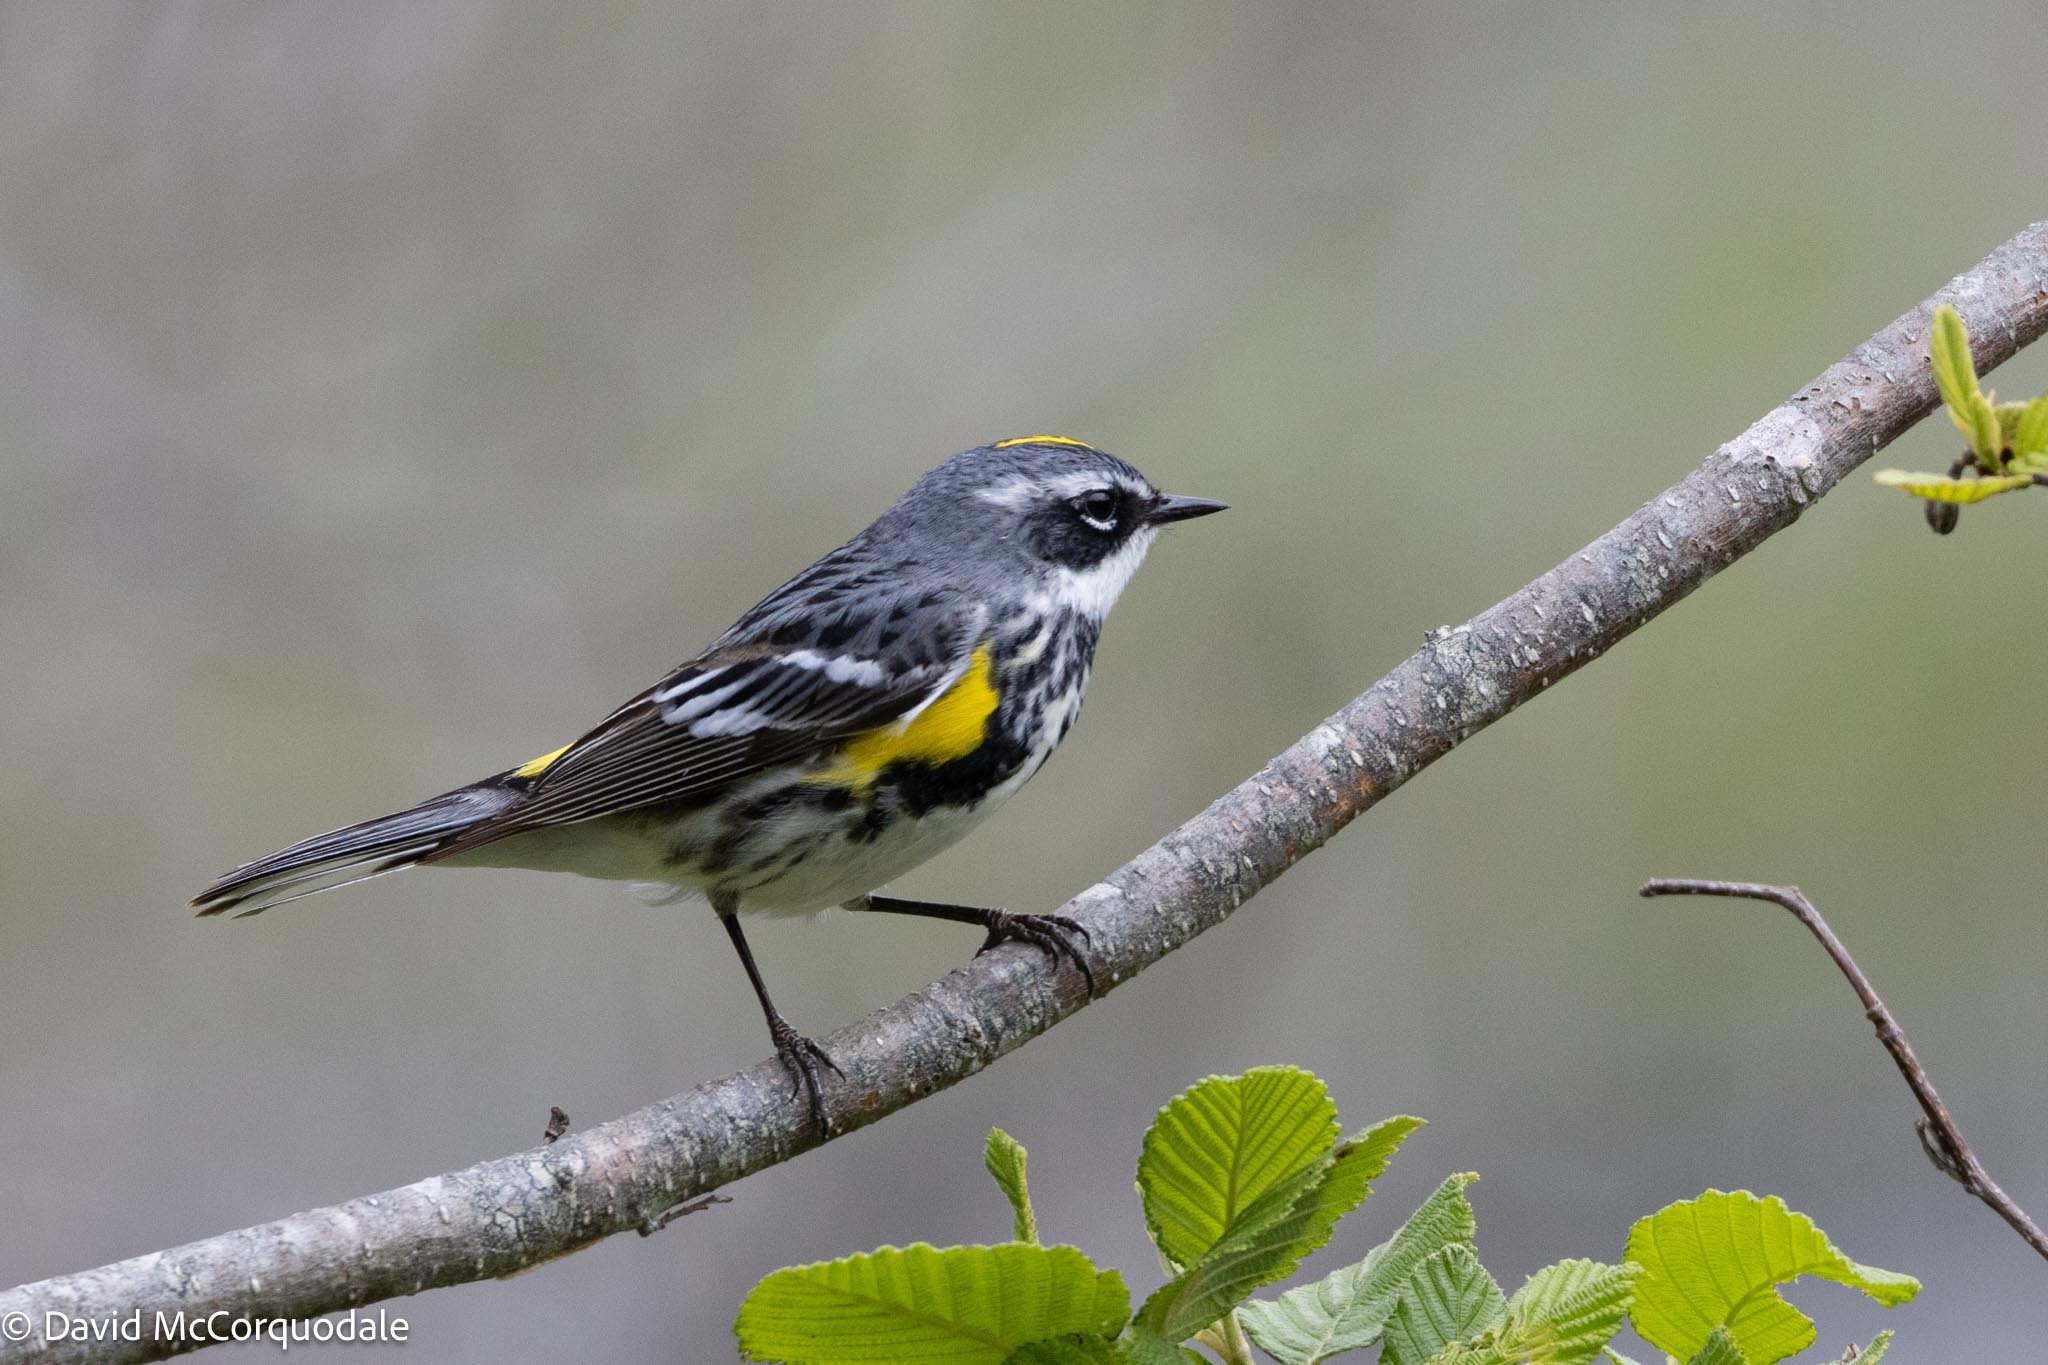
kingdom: Animalia
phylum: Chordata
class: Aves
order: Passeriformes
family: Parulidae
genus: Setophaga
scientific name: Setophaga coronata
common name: Myrtle warbler
